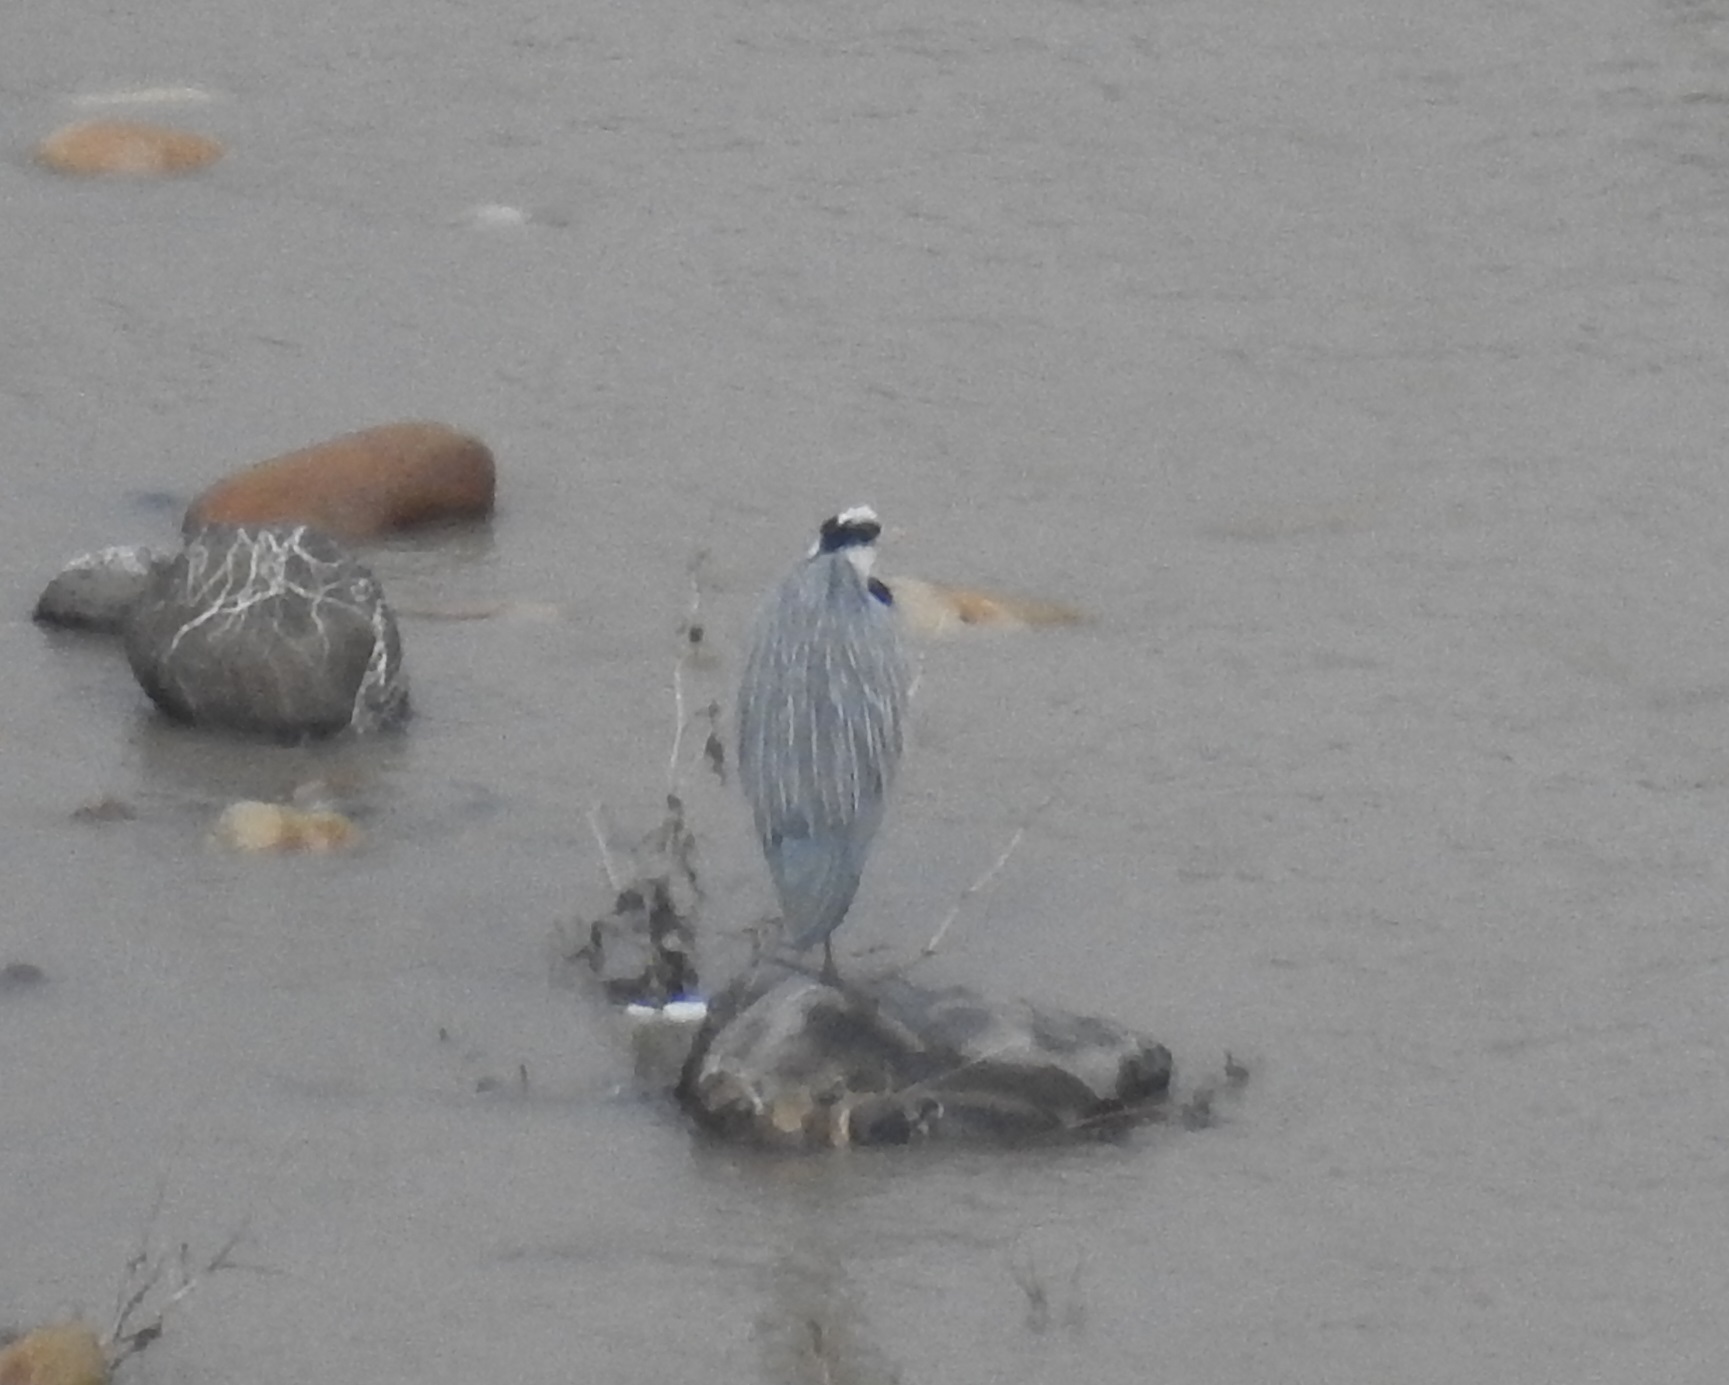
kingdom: Animalia
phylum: Chordata
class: Aves
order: Pelecaniformes
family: Ardeidae
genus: Ardea
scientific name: Ardea cinerea
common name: Grey heron
